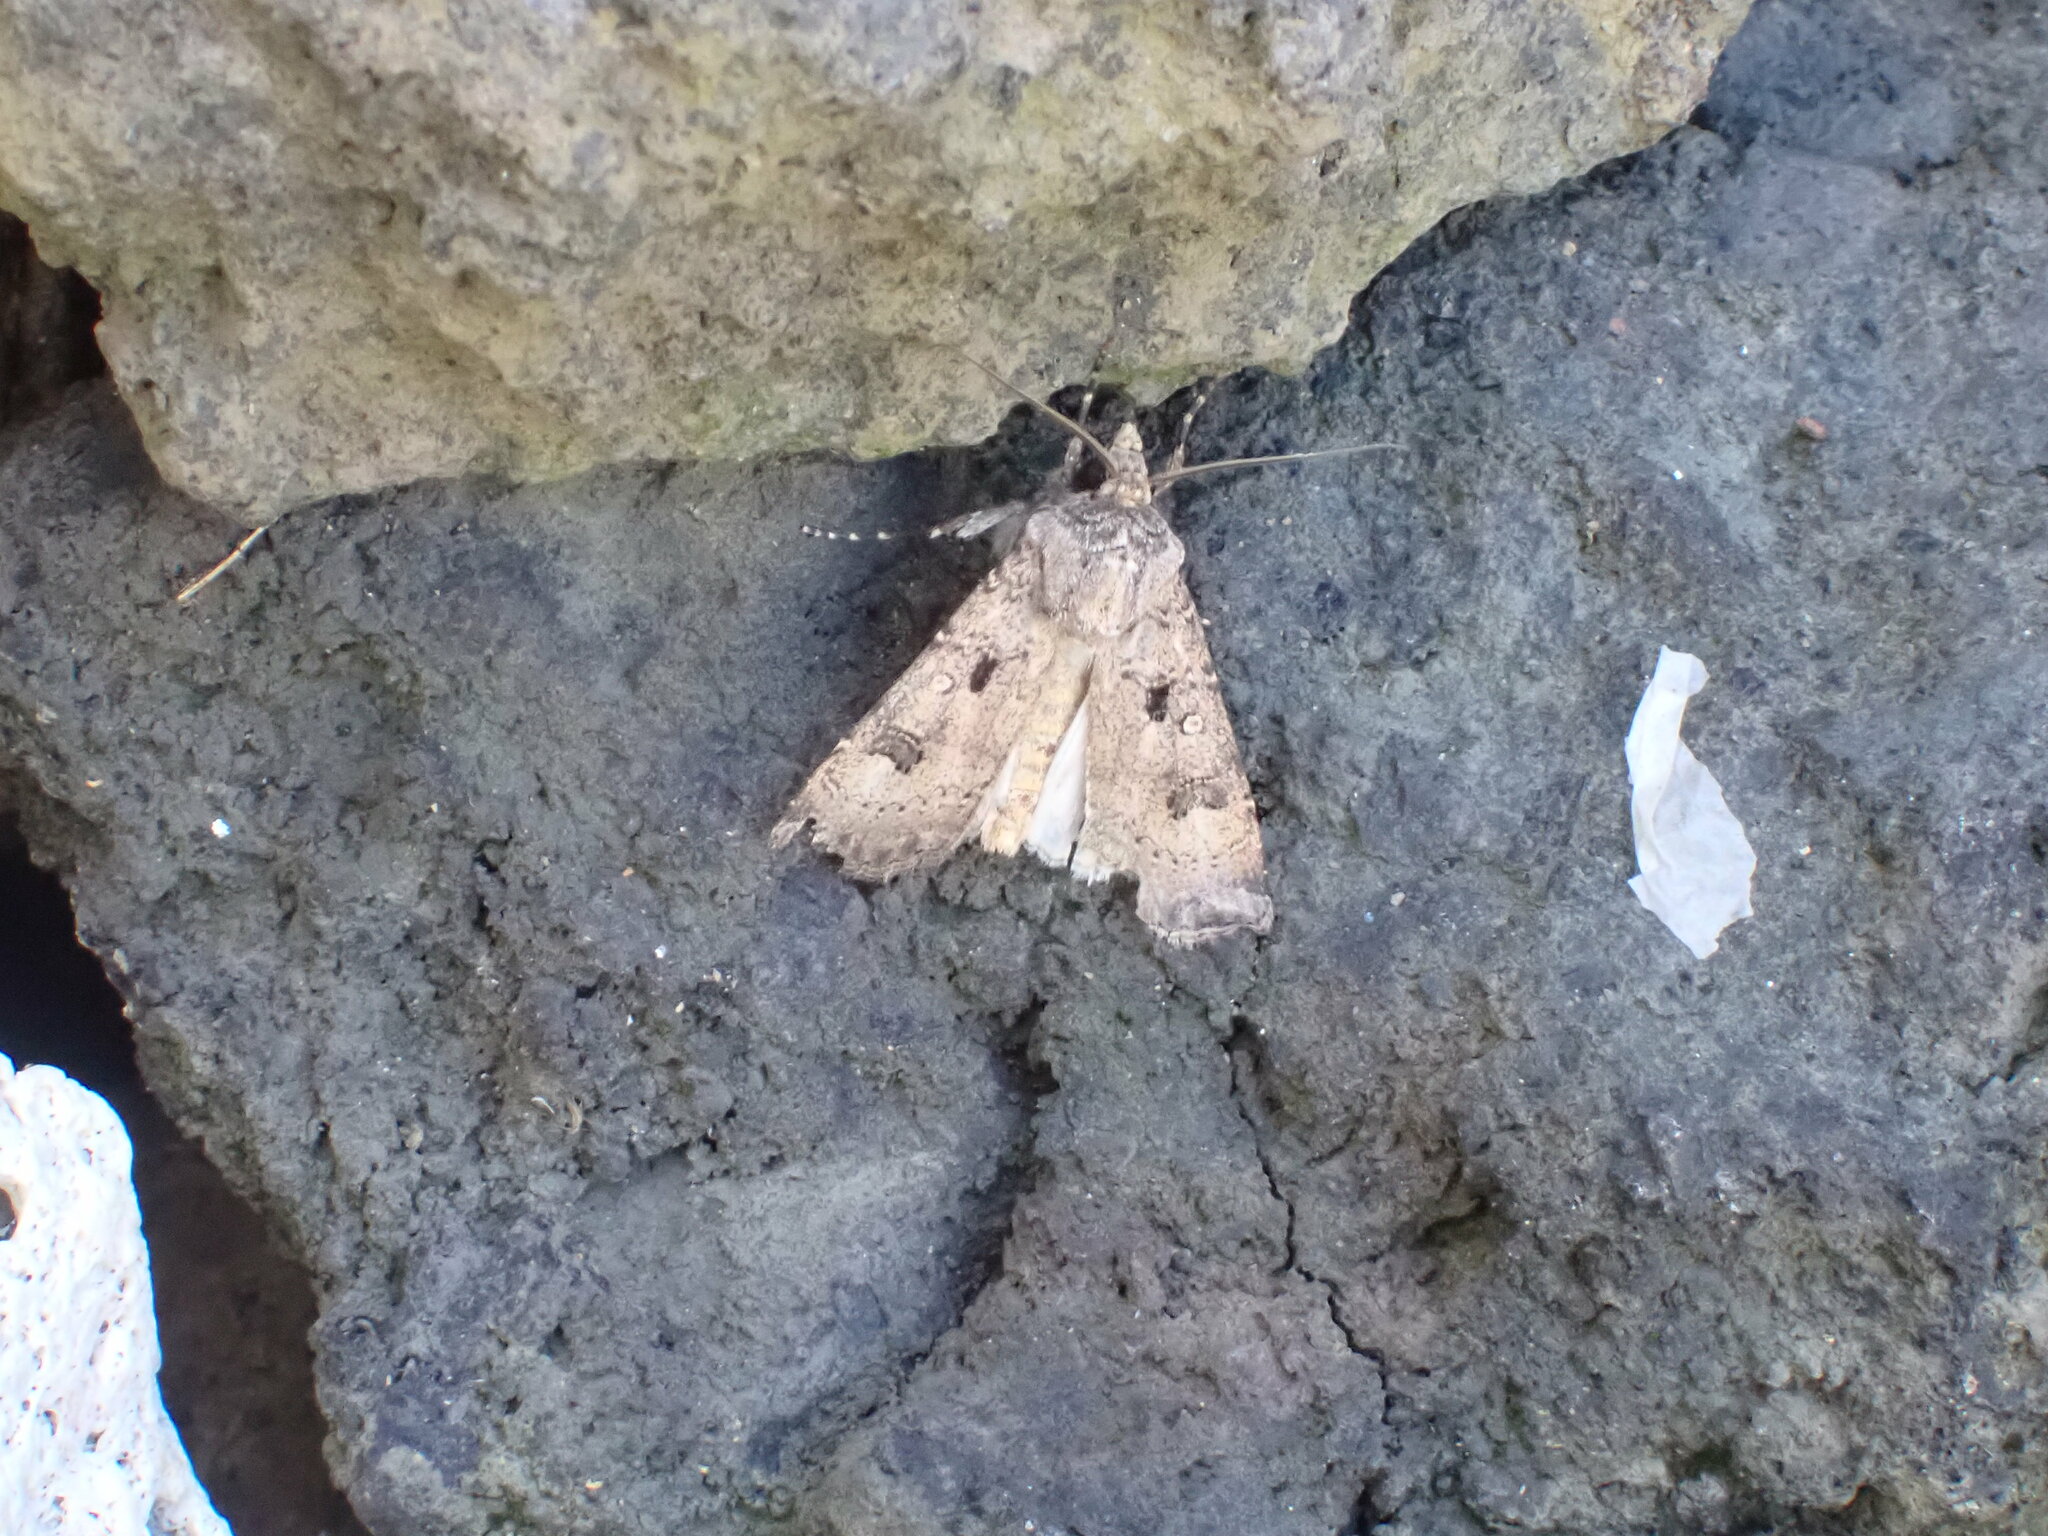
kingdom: Animalia
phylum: Arthropoda
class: Insecta
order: Lepidoptera
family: Noctuidae
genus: Agrotis
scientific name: Agrotis trux
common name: Crescent dart
